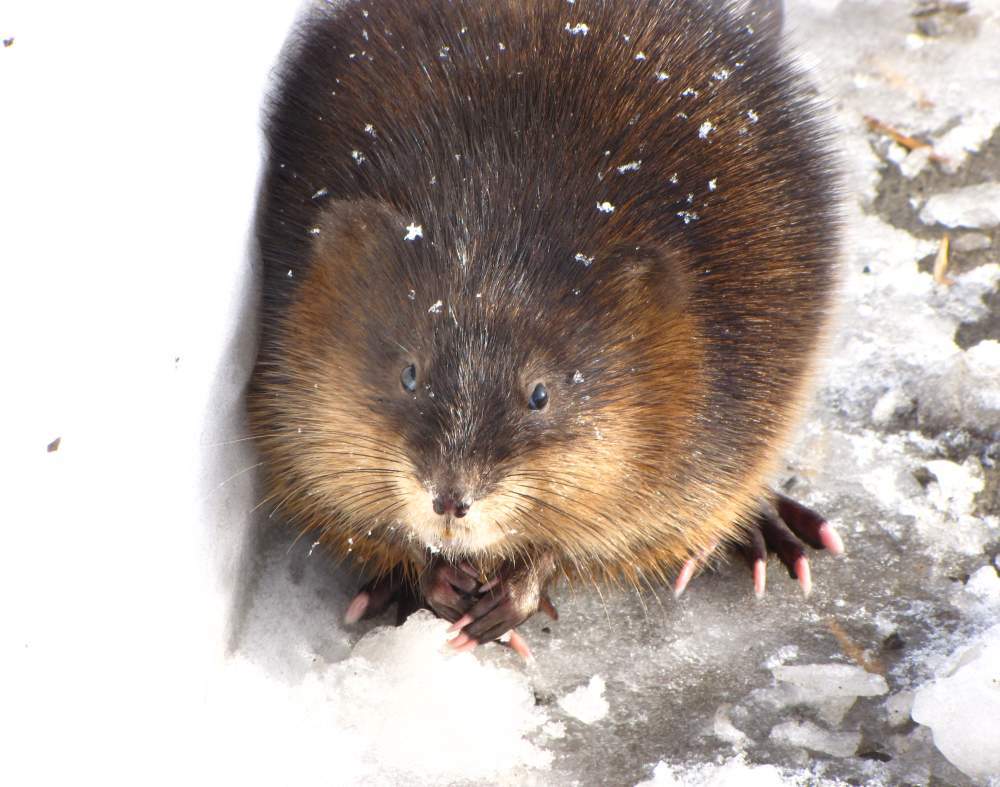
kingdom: Animalia
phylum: Chordata
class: Mammalia
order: Rodentia
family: Cricetidae
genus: Ondatra
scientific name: Ondatra zibethicus
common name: Muskrat
